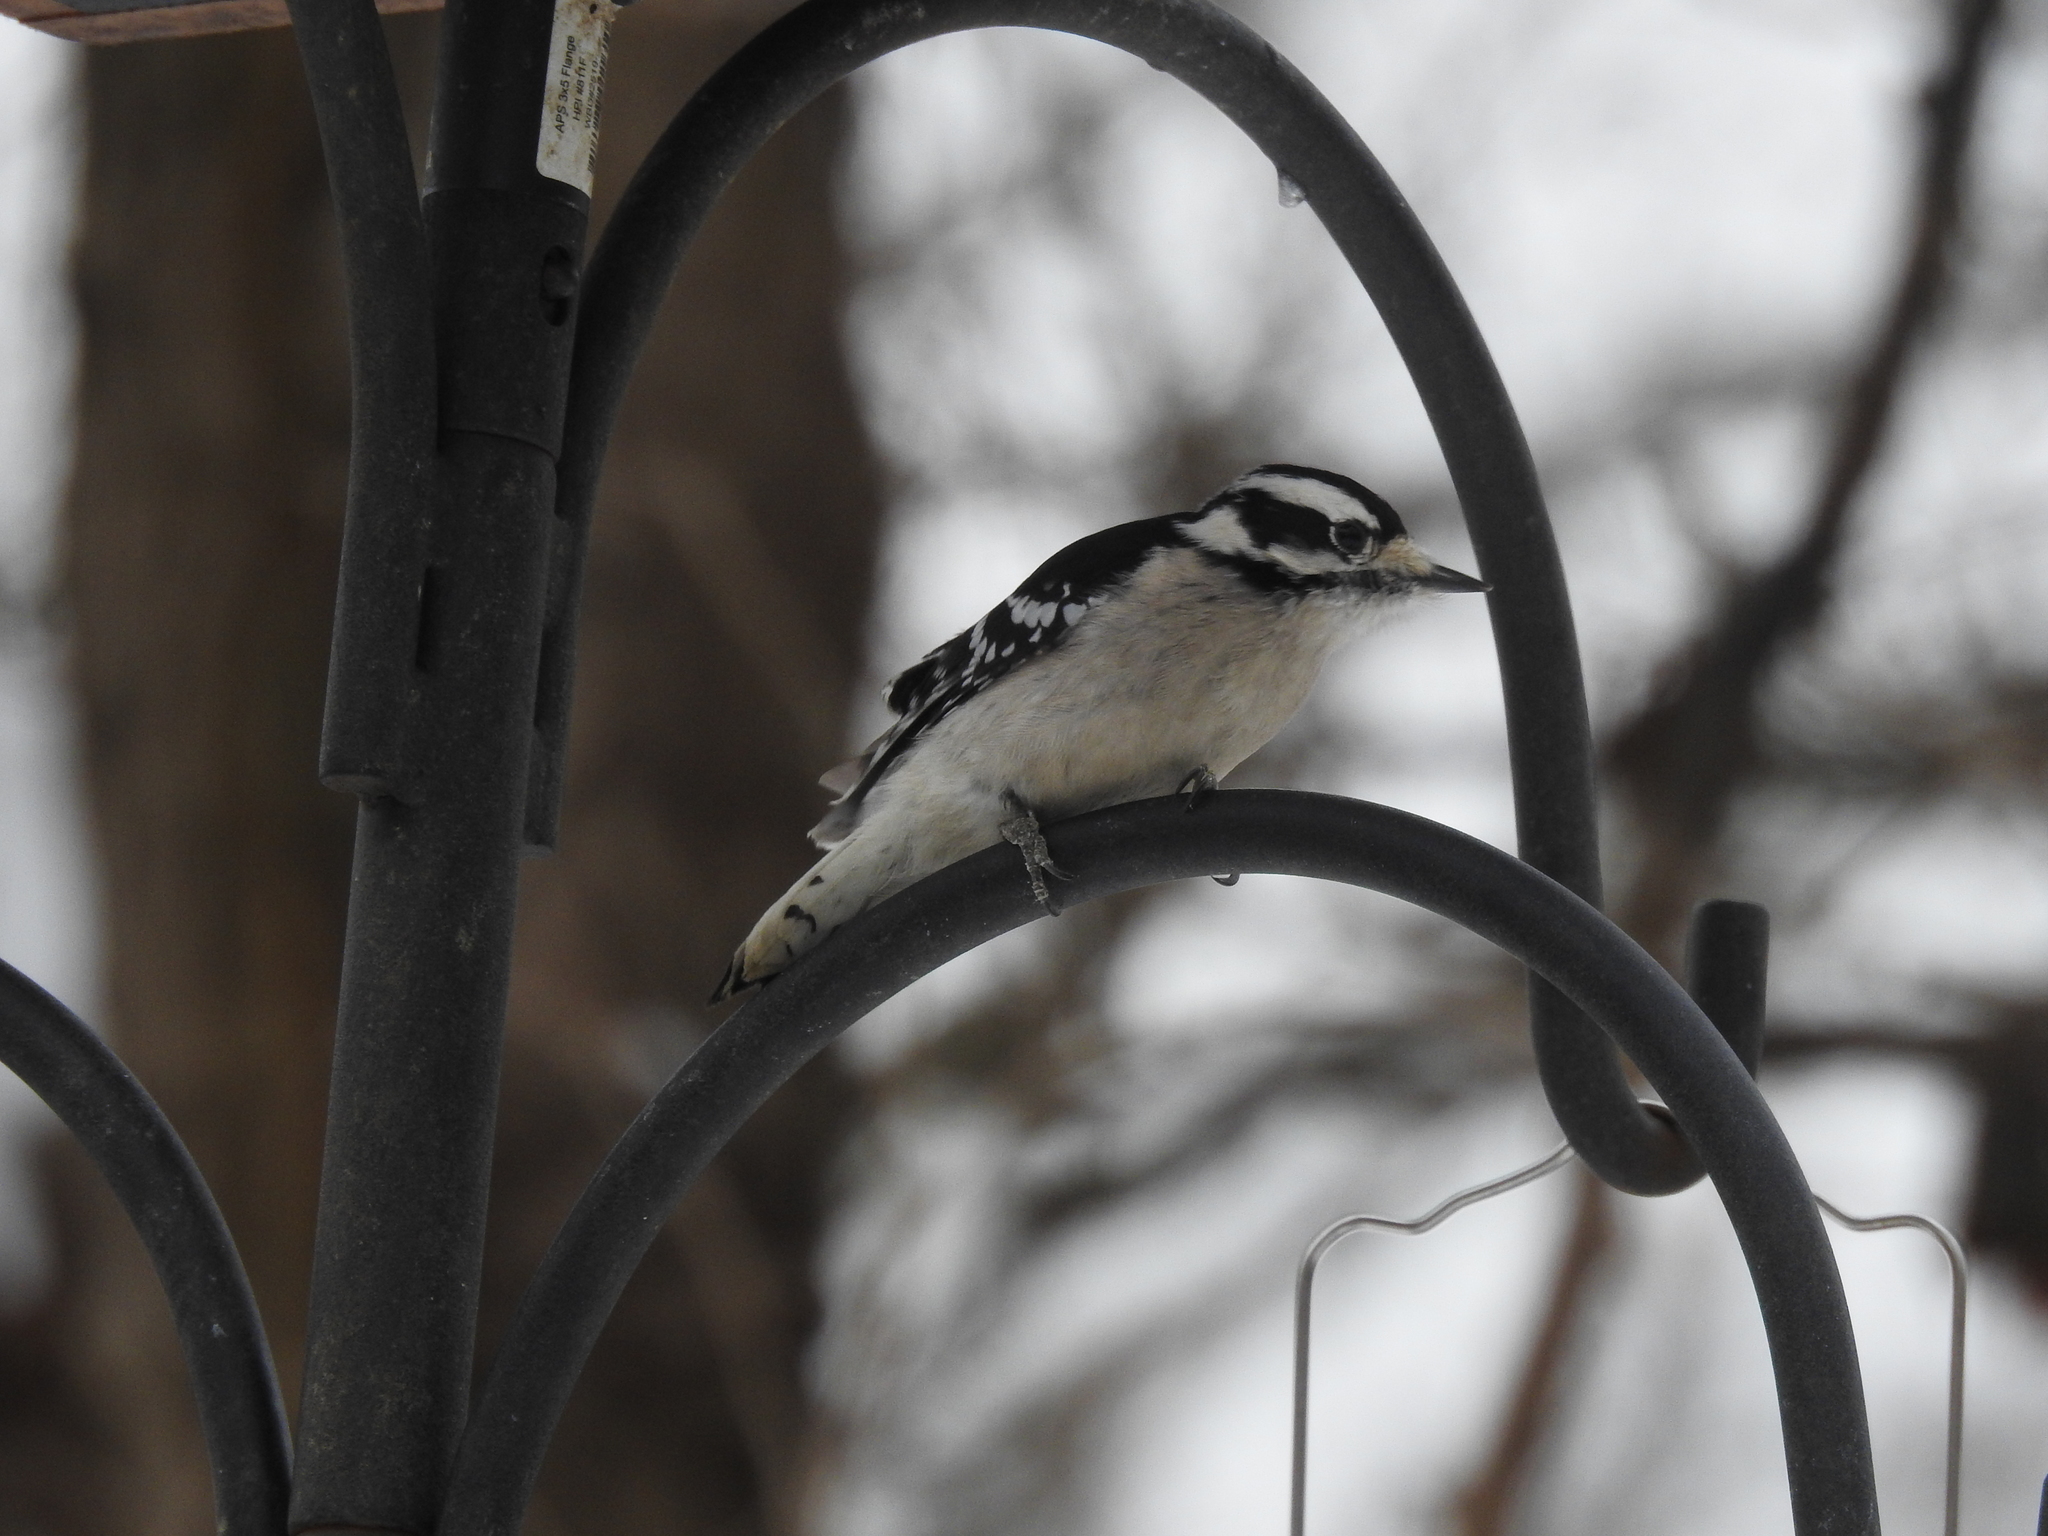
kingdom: Animalia
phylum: Chordata
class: Aves
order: Piciformes
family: Picidae
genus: Dryobates
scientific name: Dryobates pubescens
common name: Downy woodpecker
